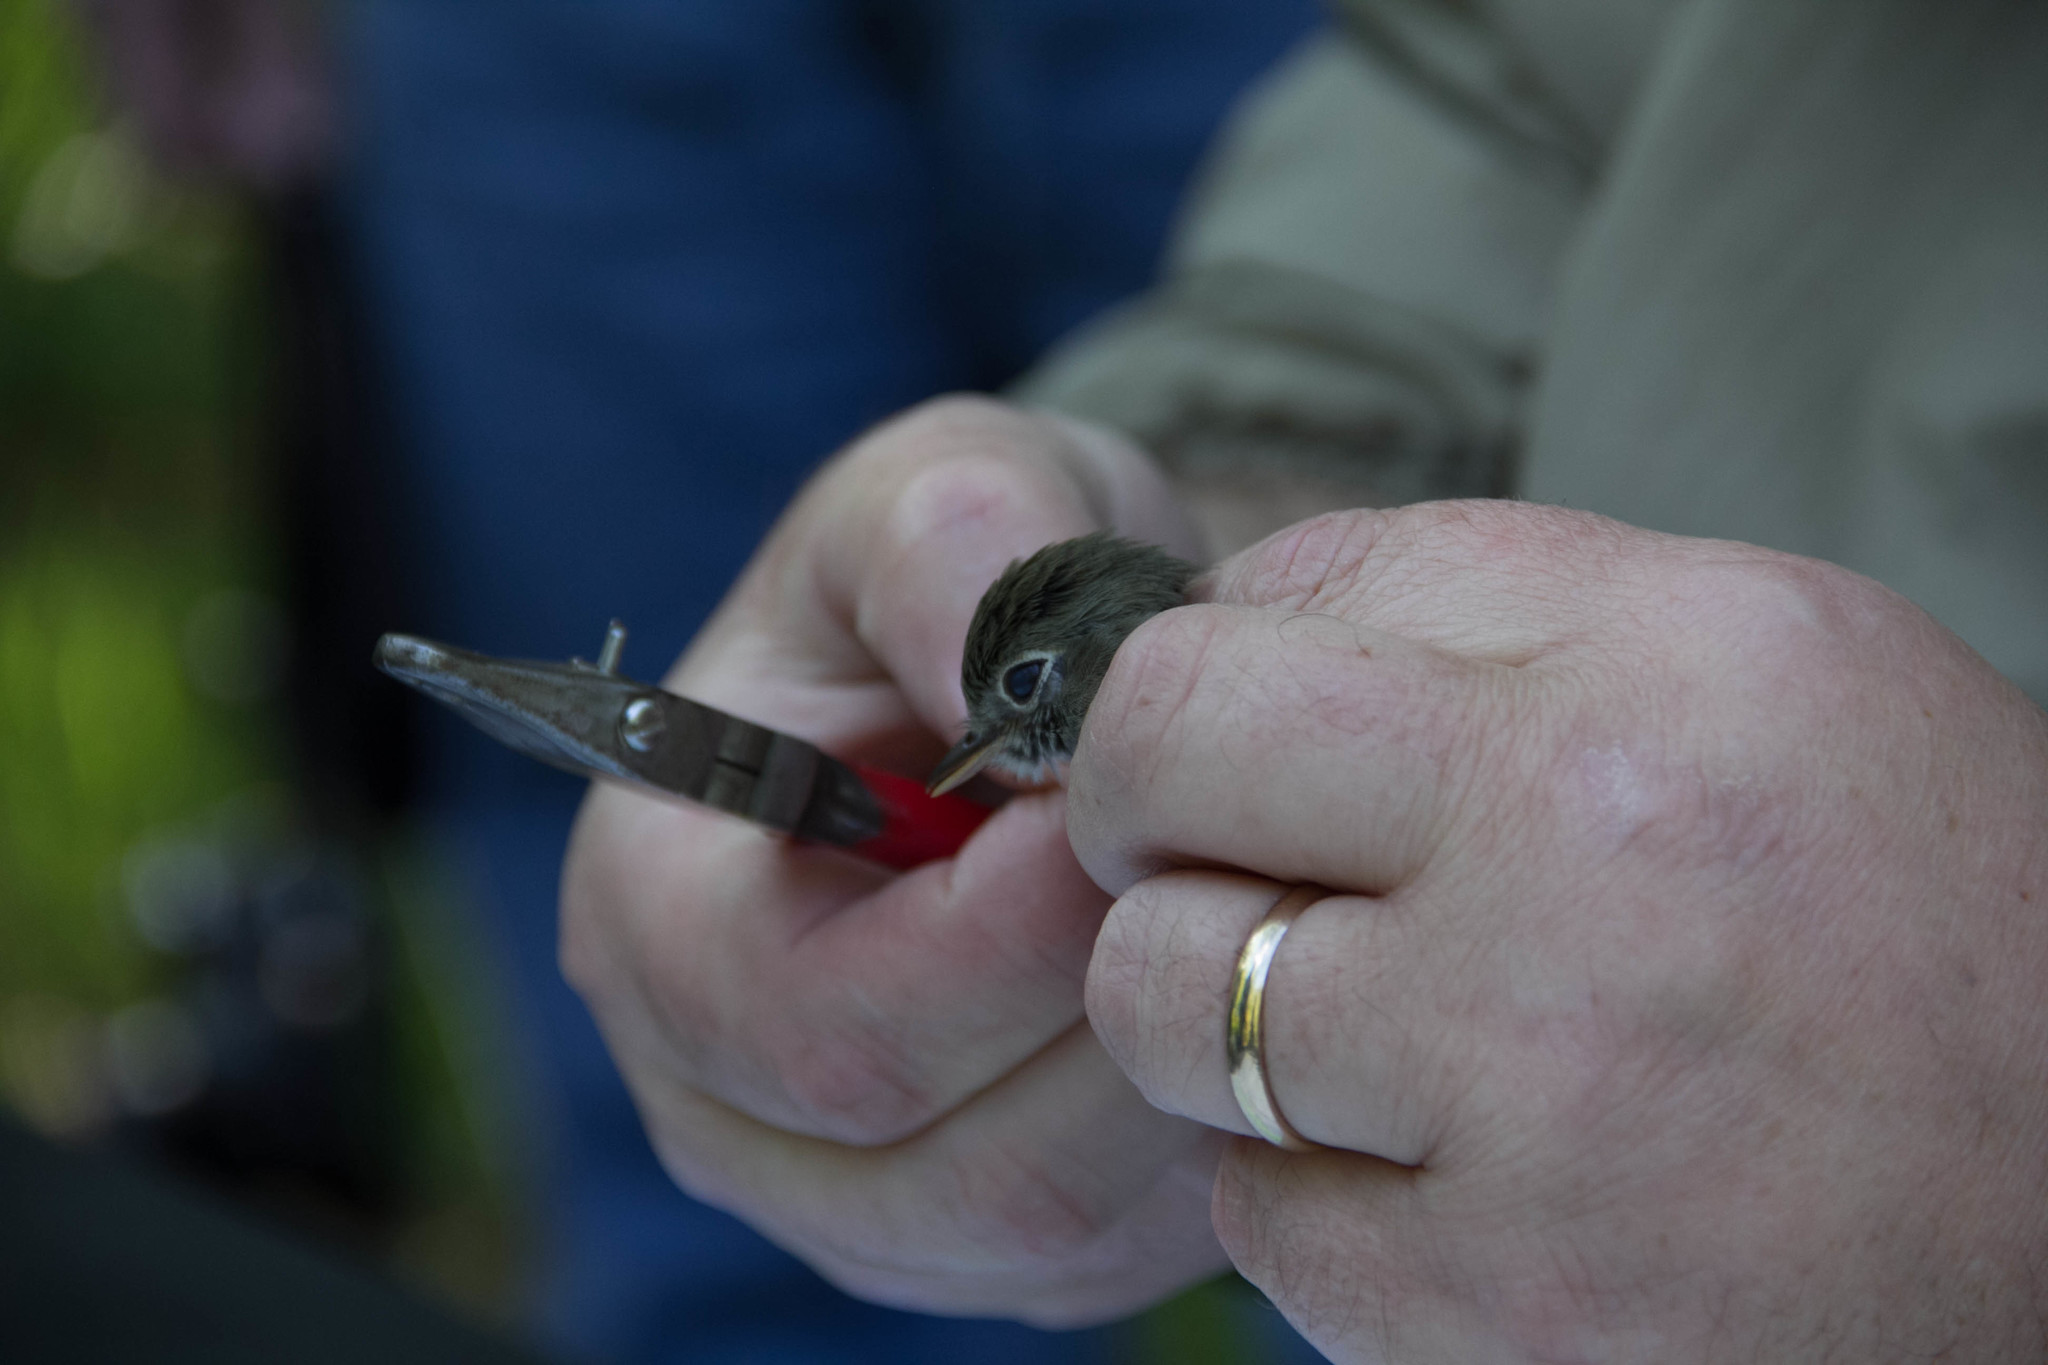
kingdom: Animalia
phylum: Chordata
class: Aves
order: Passeriformes
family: Tyrannidae
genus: Empidonax
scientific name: Empidonax
